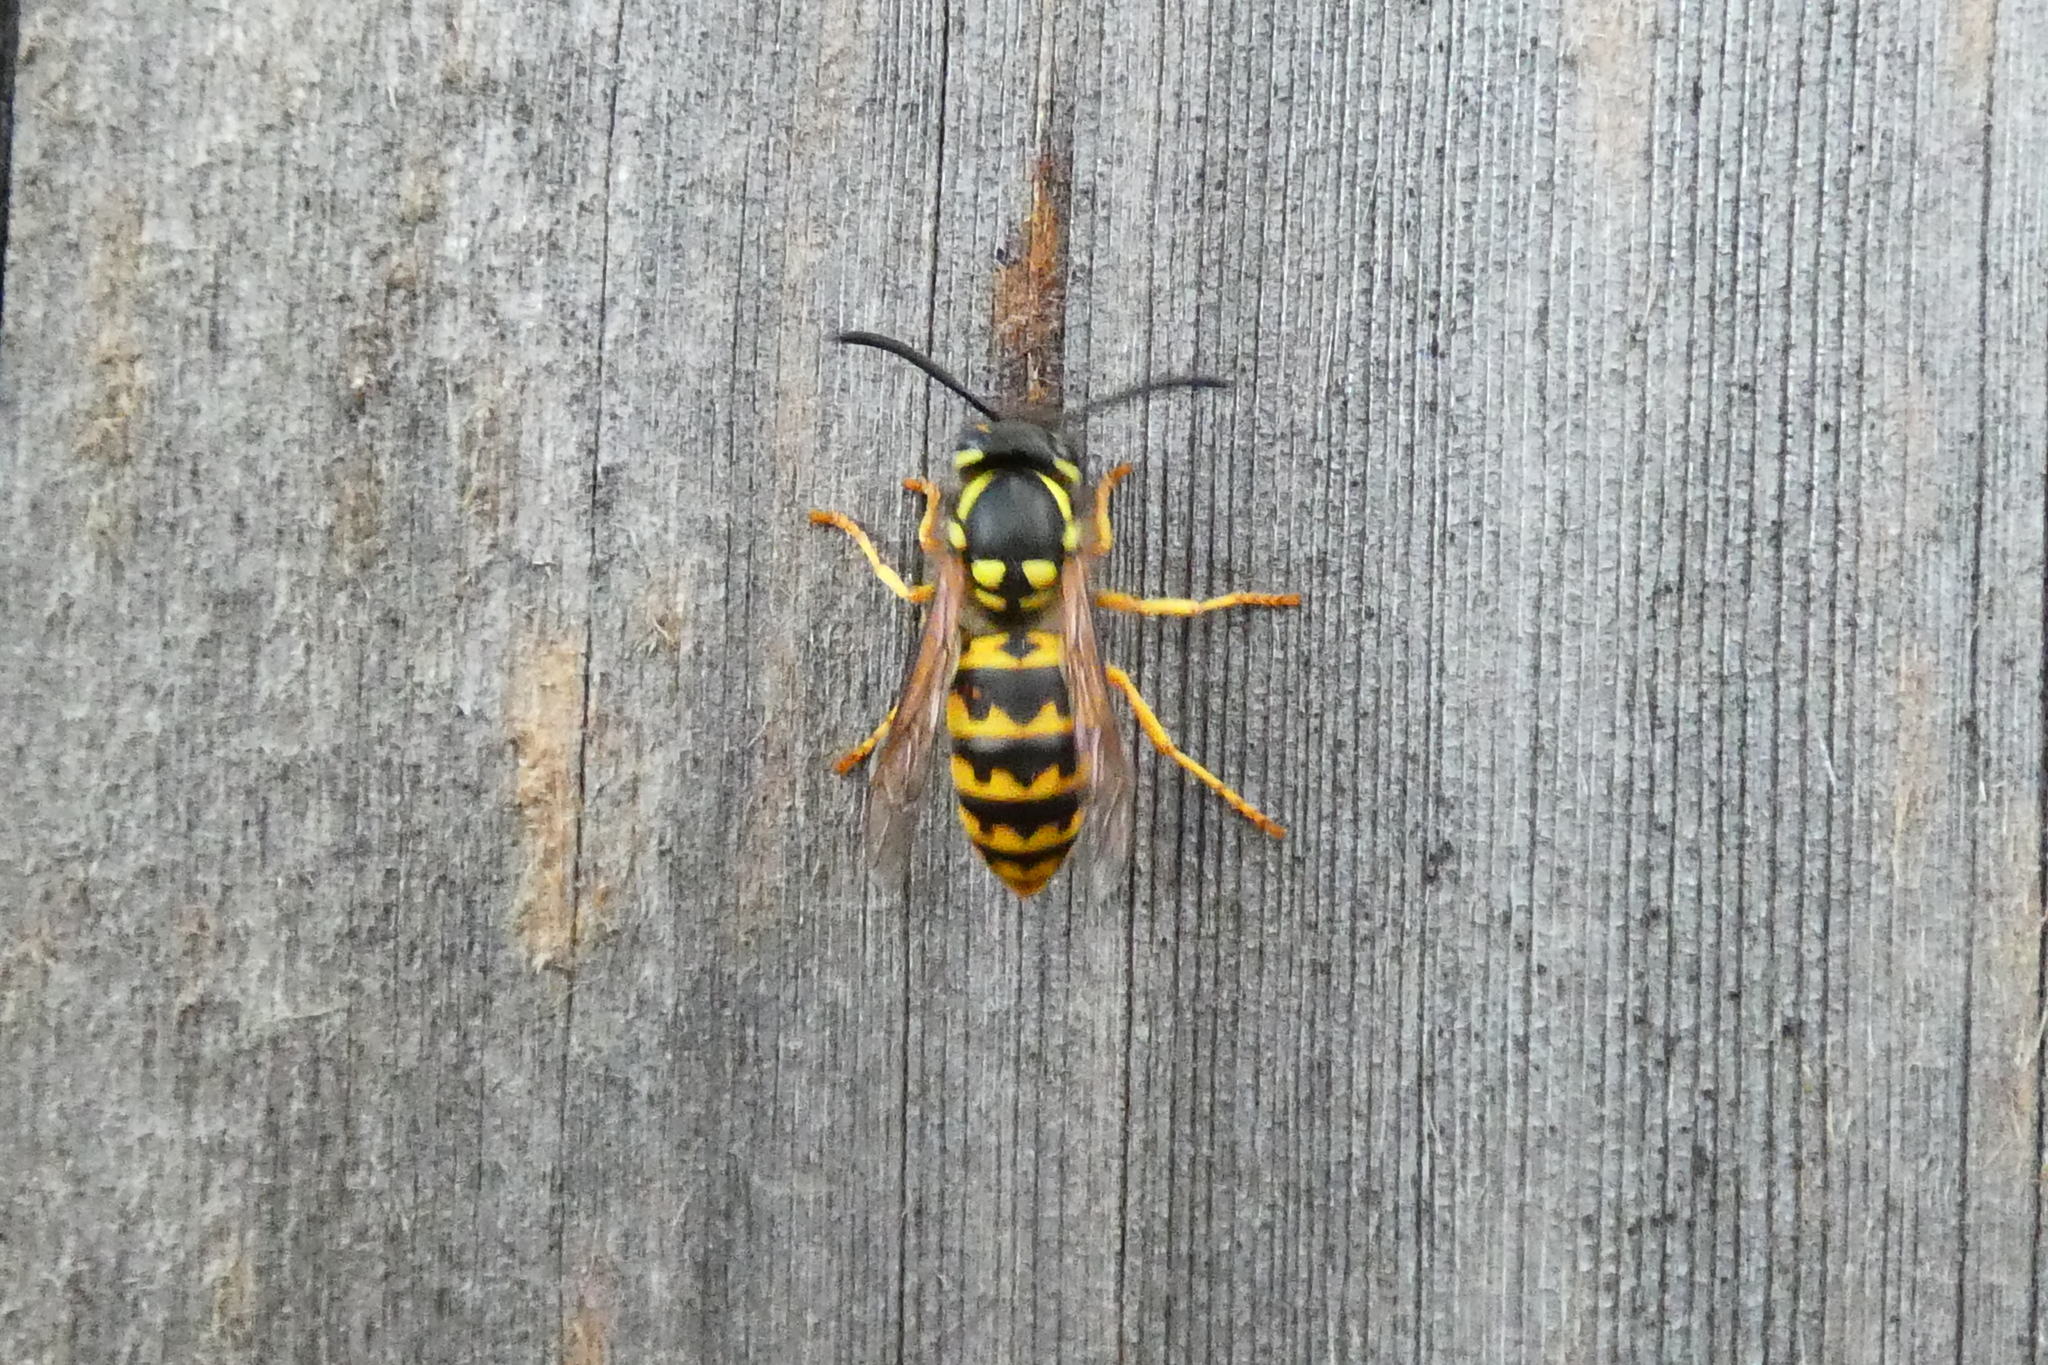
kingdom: Animalia
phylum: Arthropoda
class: Insecta
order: Hymenoptera
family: Vespidae
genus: Vespula
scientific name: Vespula germanica
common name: German wasp
